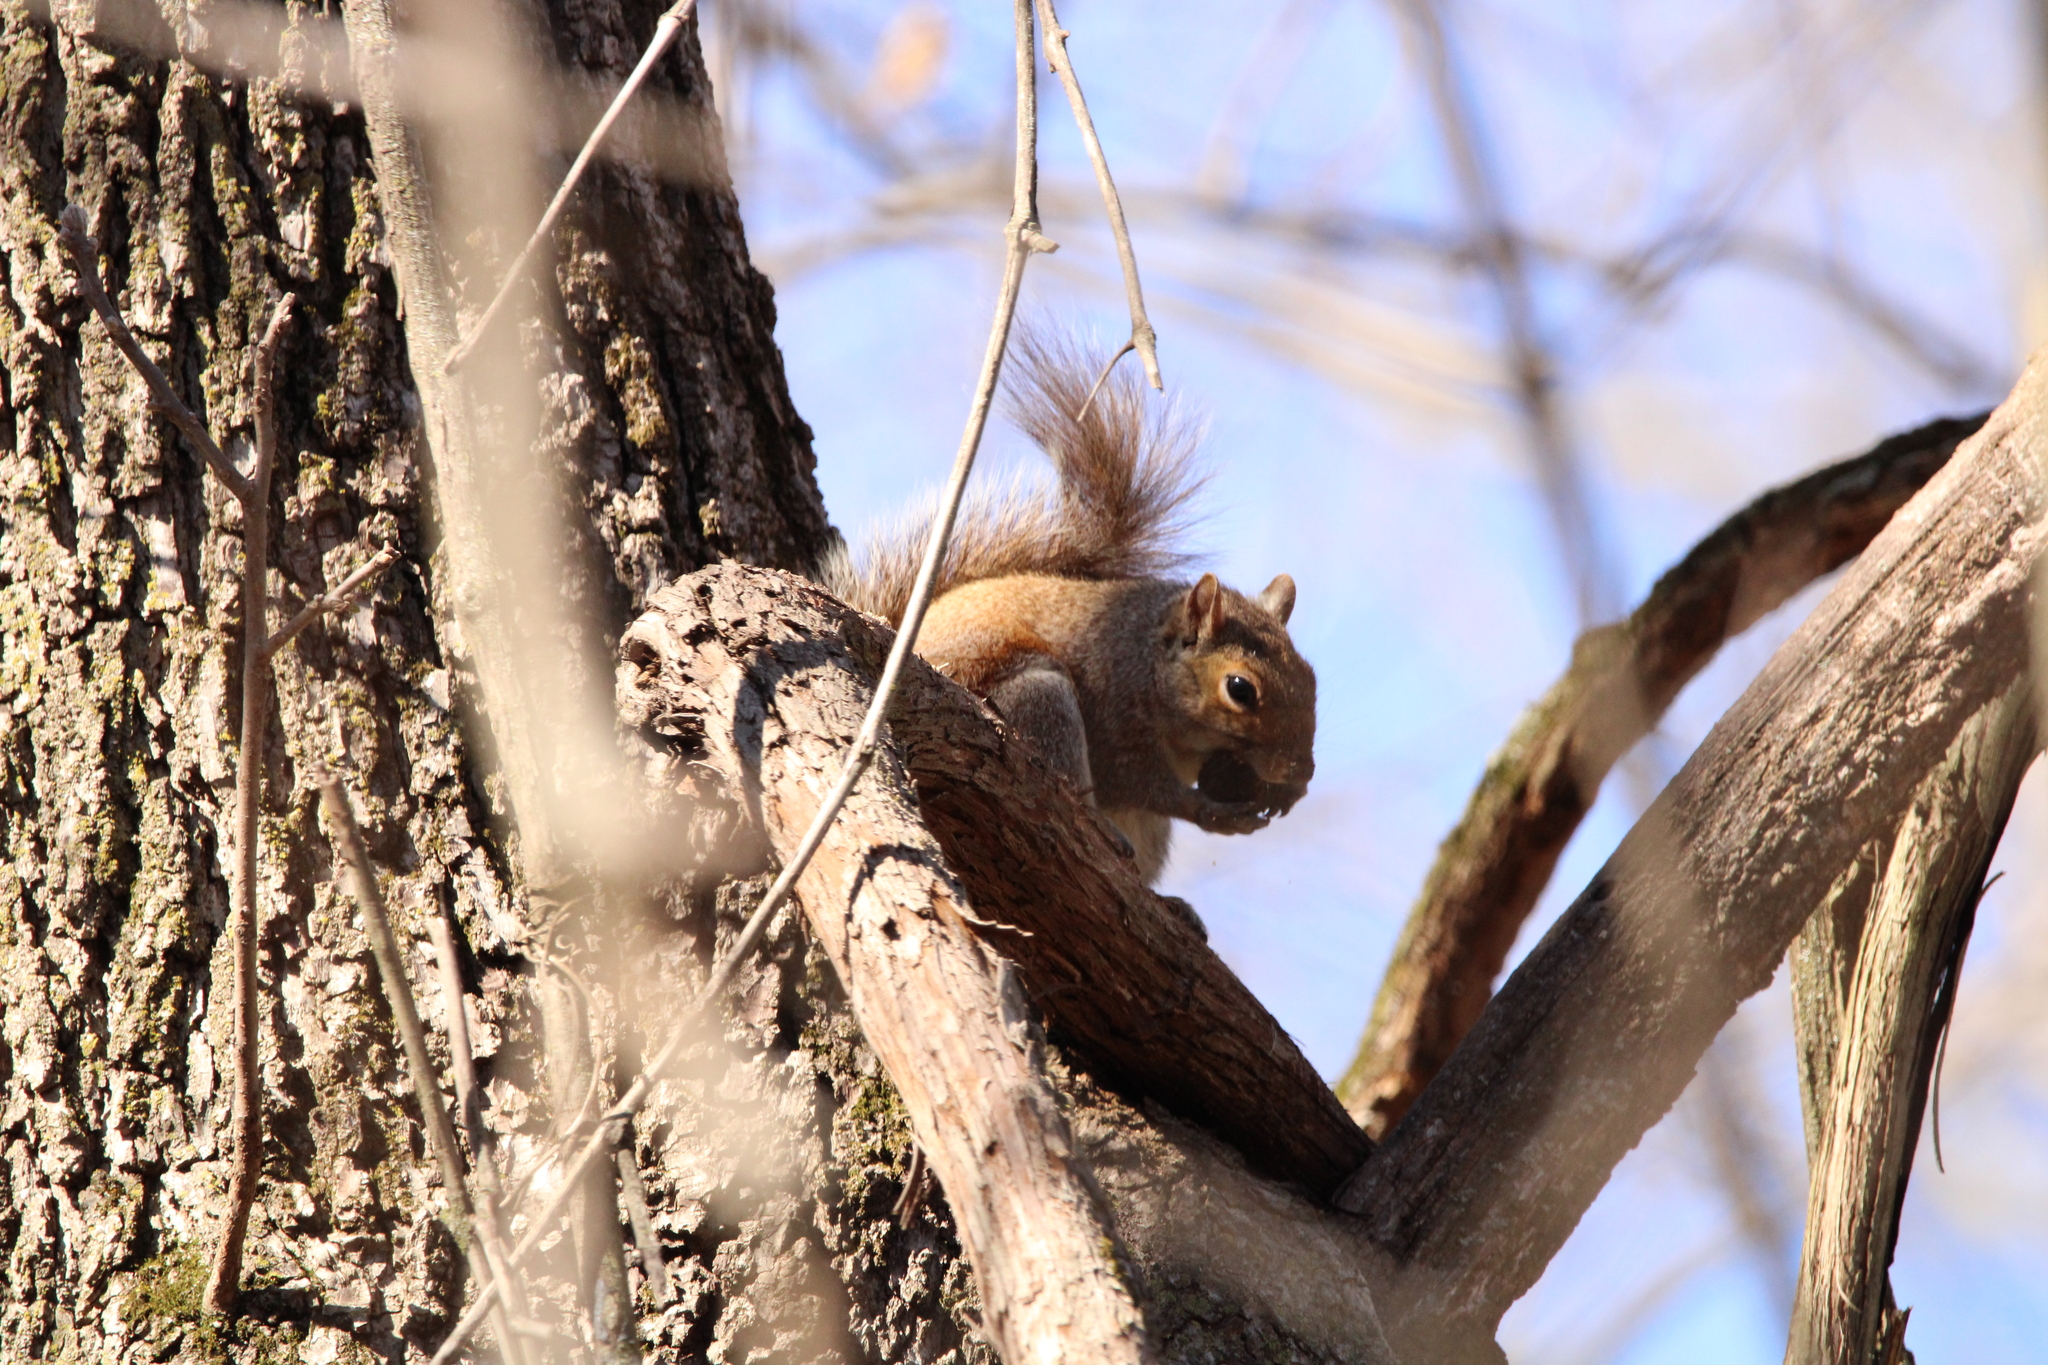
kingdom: Animalia
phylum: Chordata
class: Mammalia
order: Rodentia
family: Sciuridae
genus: Sciurus
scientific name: Sciurus carolinensis
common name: Eastern gray squirrel
